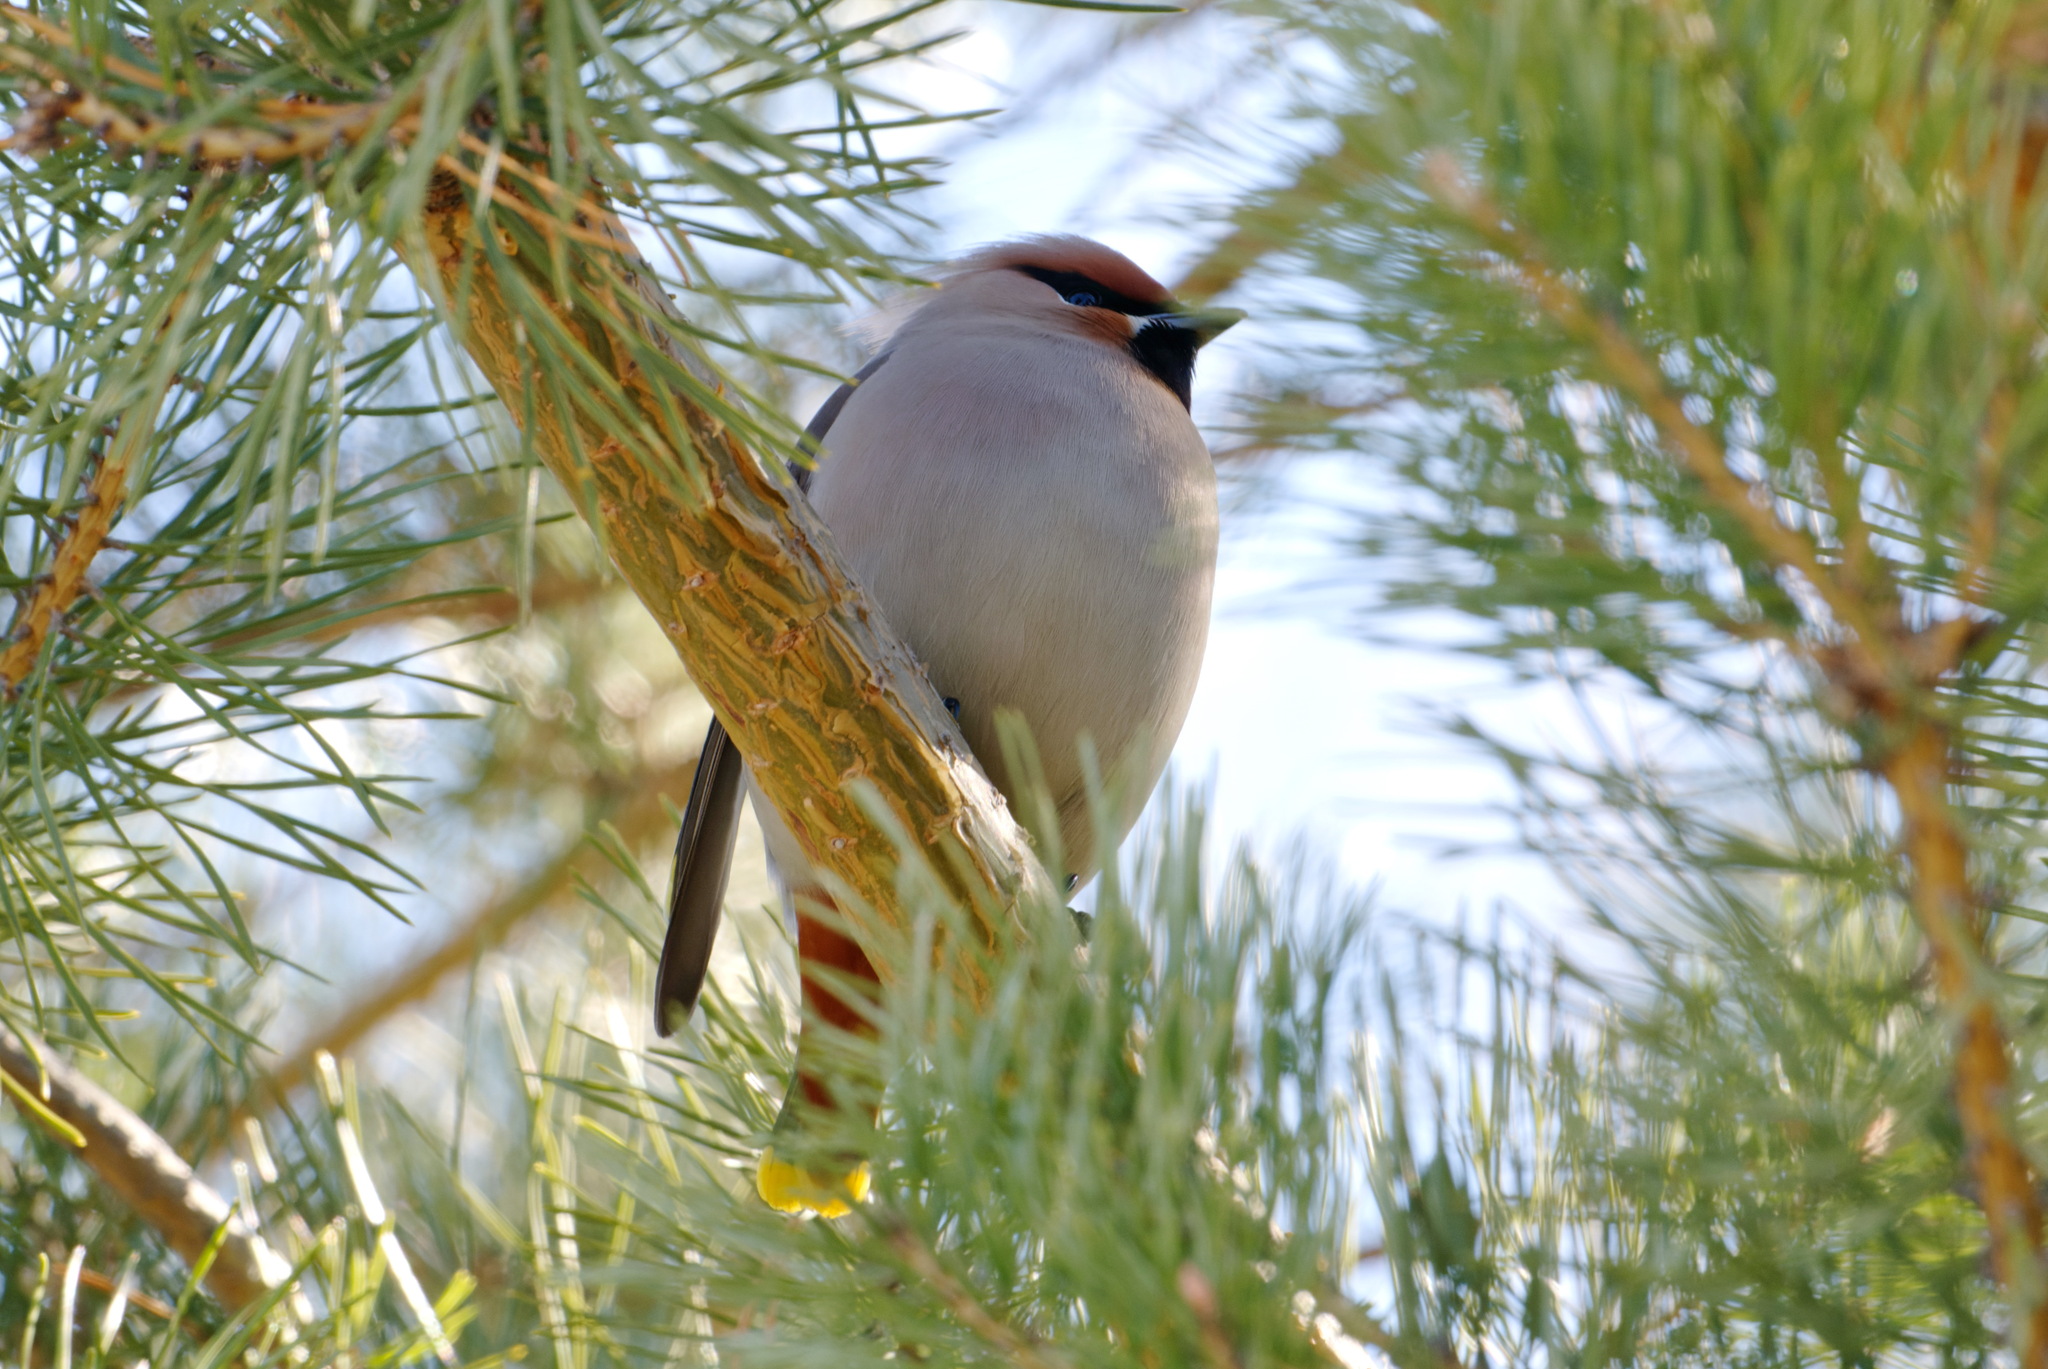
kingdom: Animalia
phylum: Chordata
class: Aves
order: Passeriformes
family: Bombycillidae
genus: Bombycilla
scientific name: Bombycilla garrulus
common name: Bohemian waxwing
